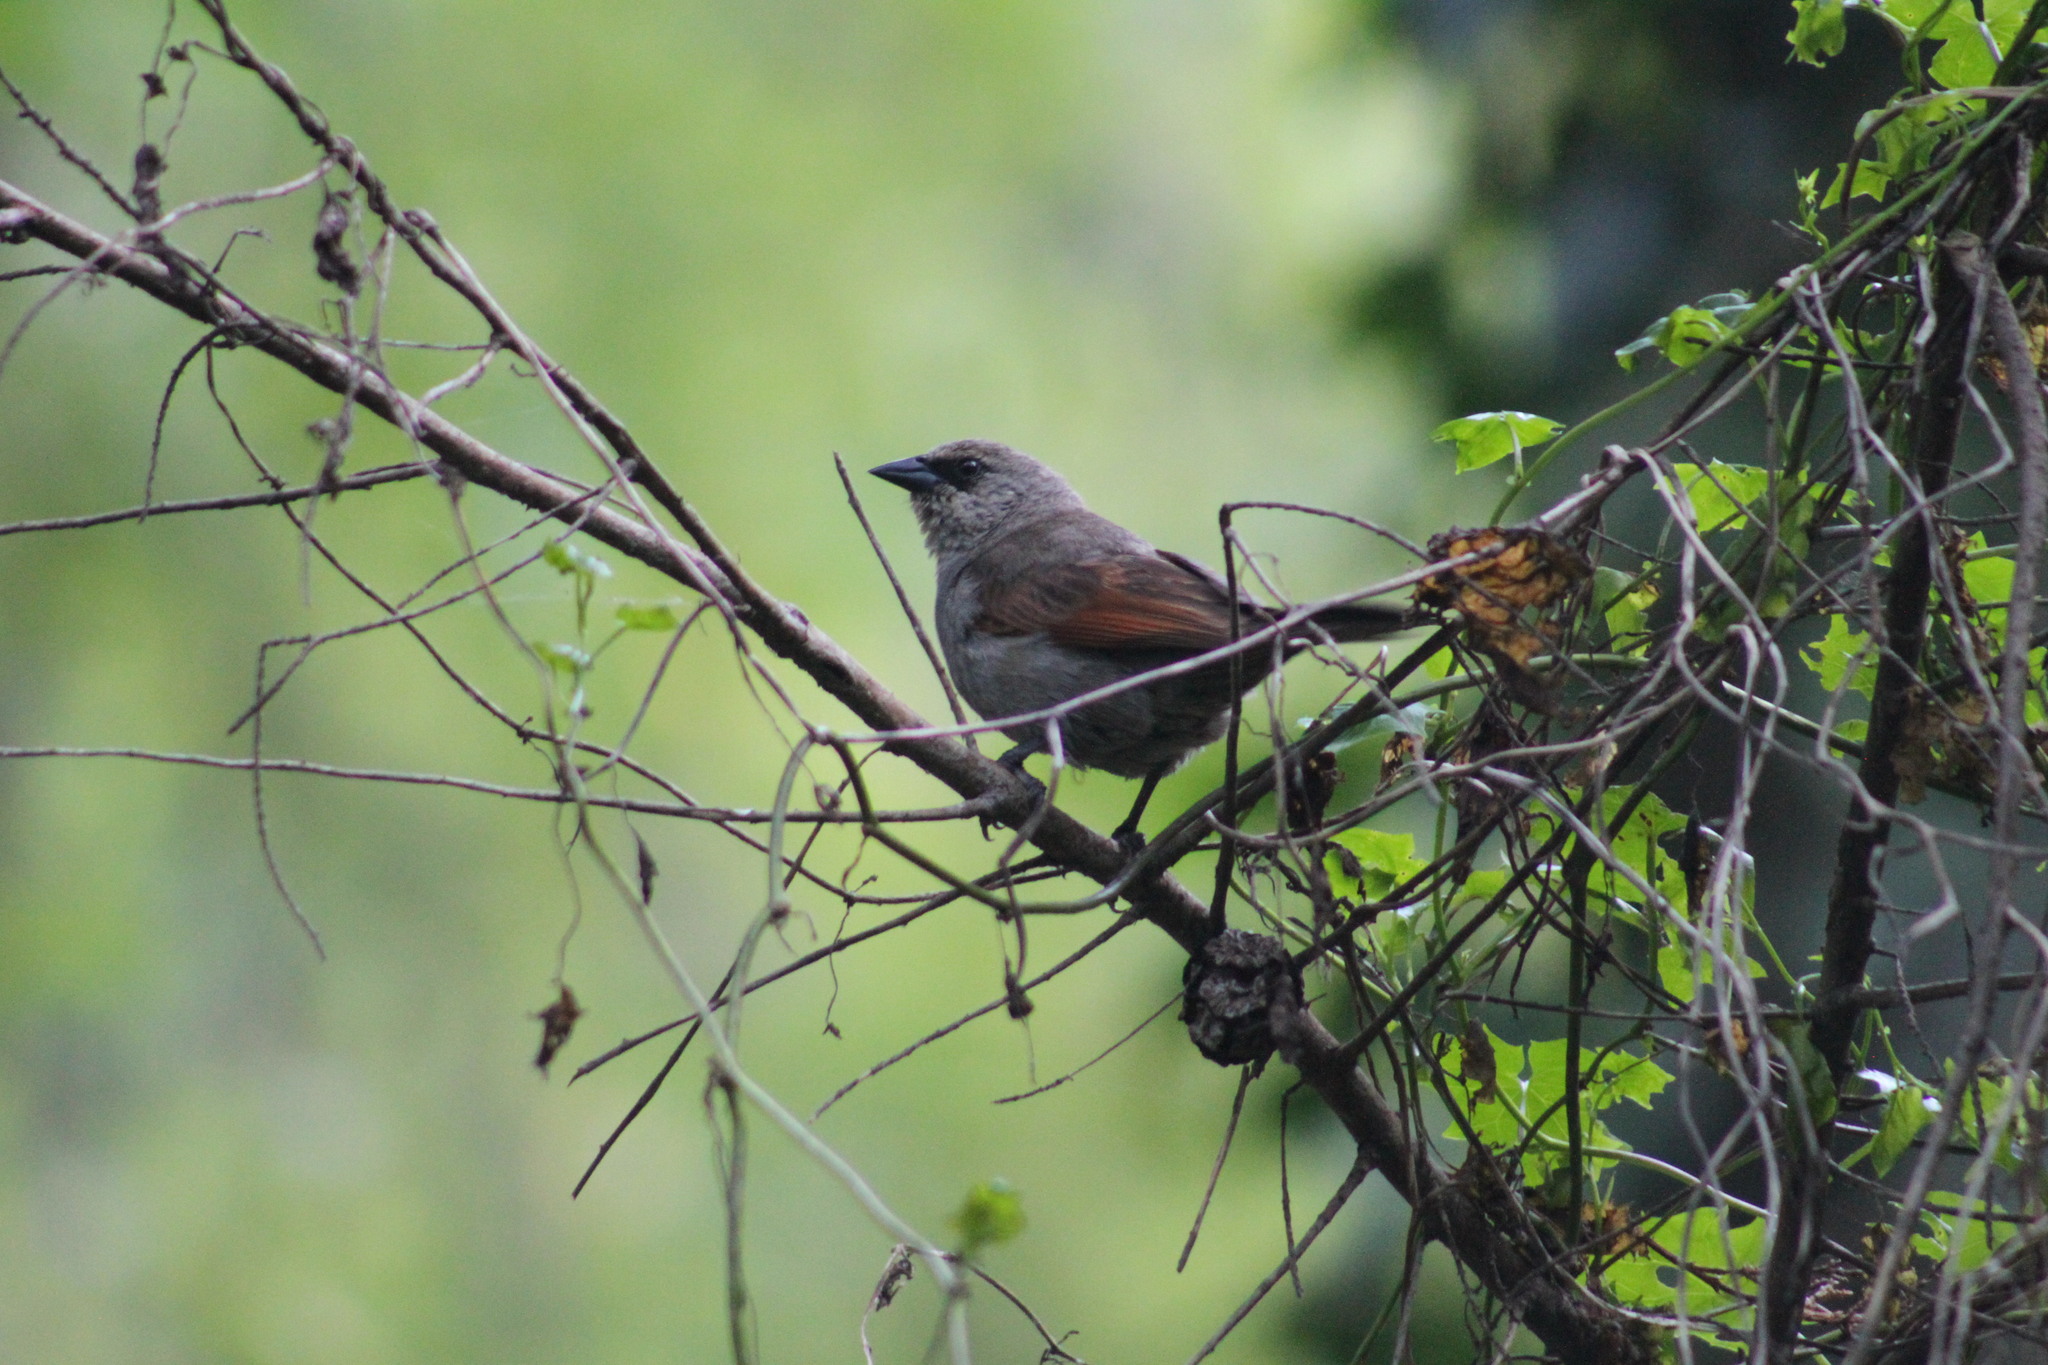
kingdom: Animalia
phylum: Chordata
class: Aves
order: Passeriformes
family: Icteridae
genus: Agelaioides
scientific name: Agelaioides badius
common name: Baywing
